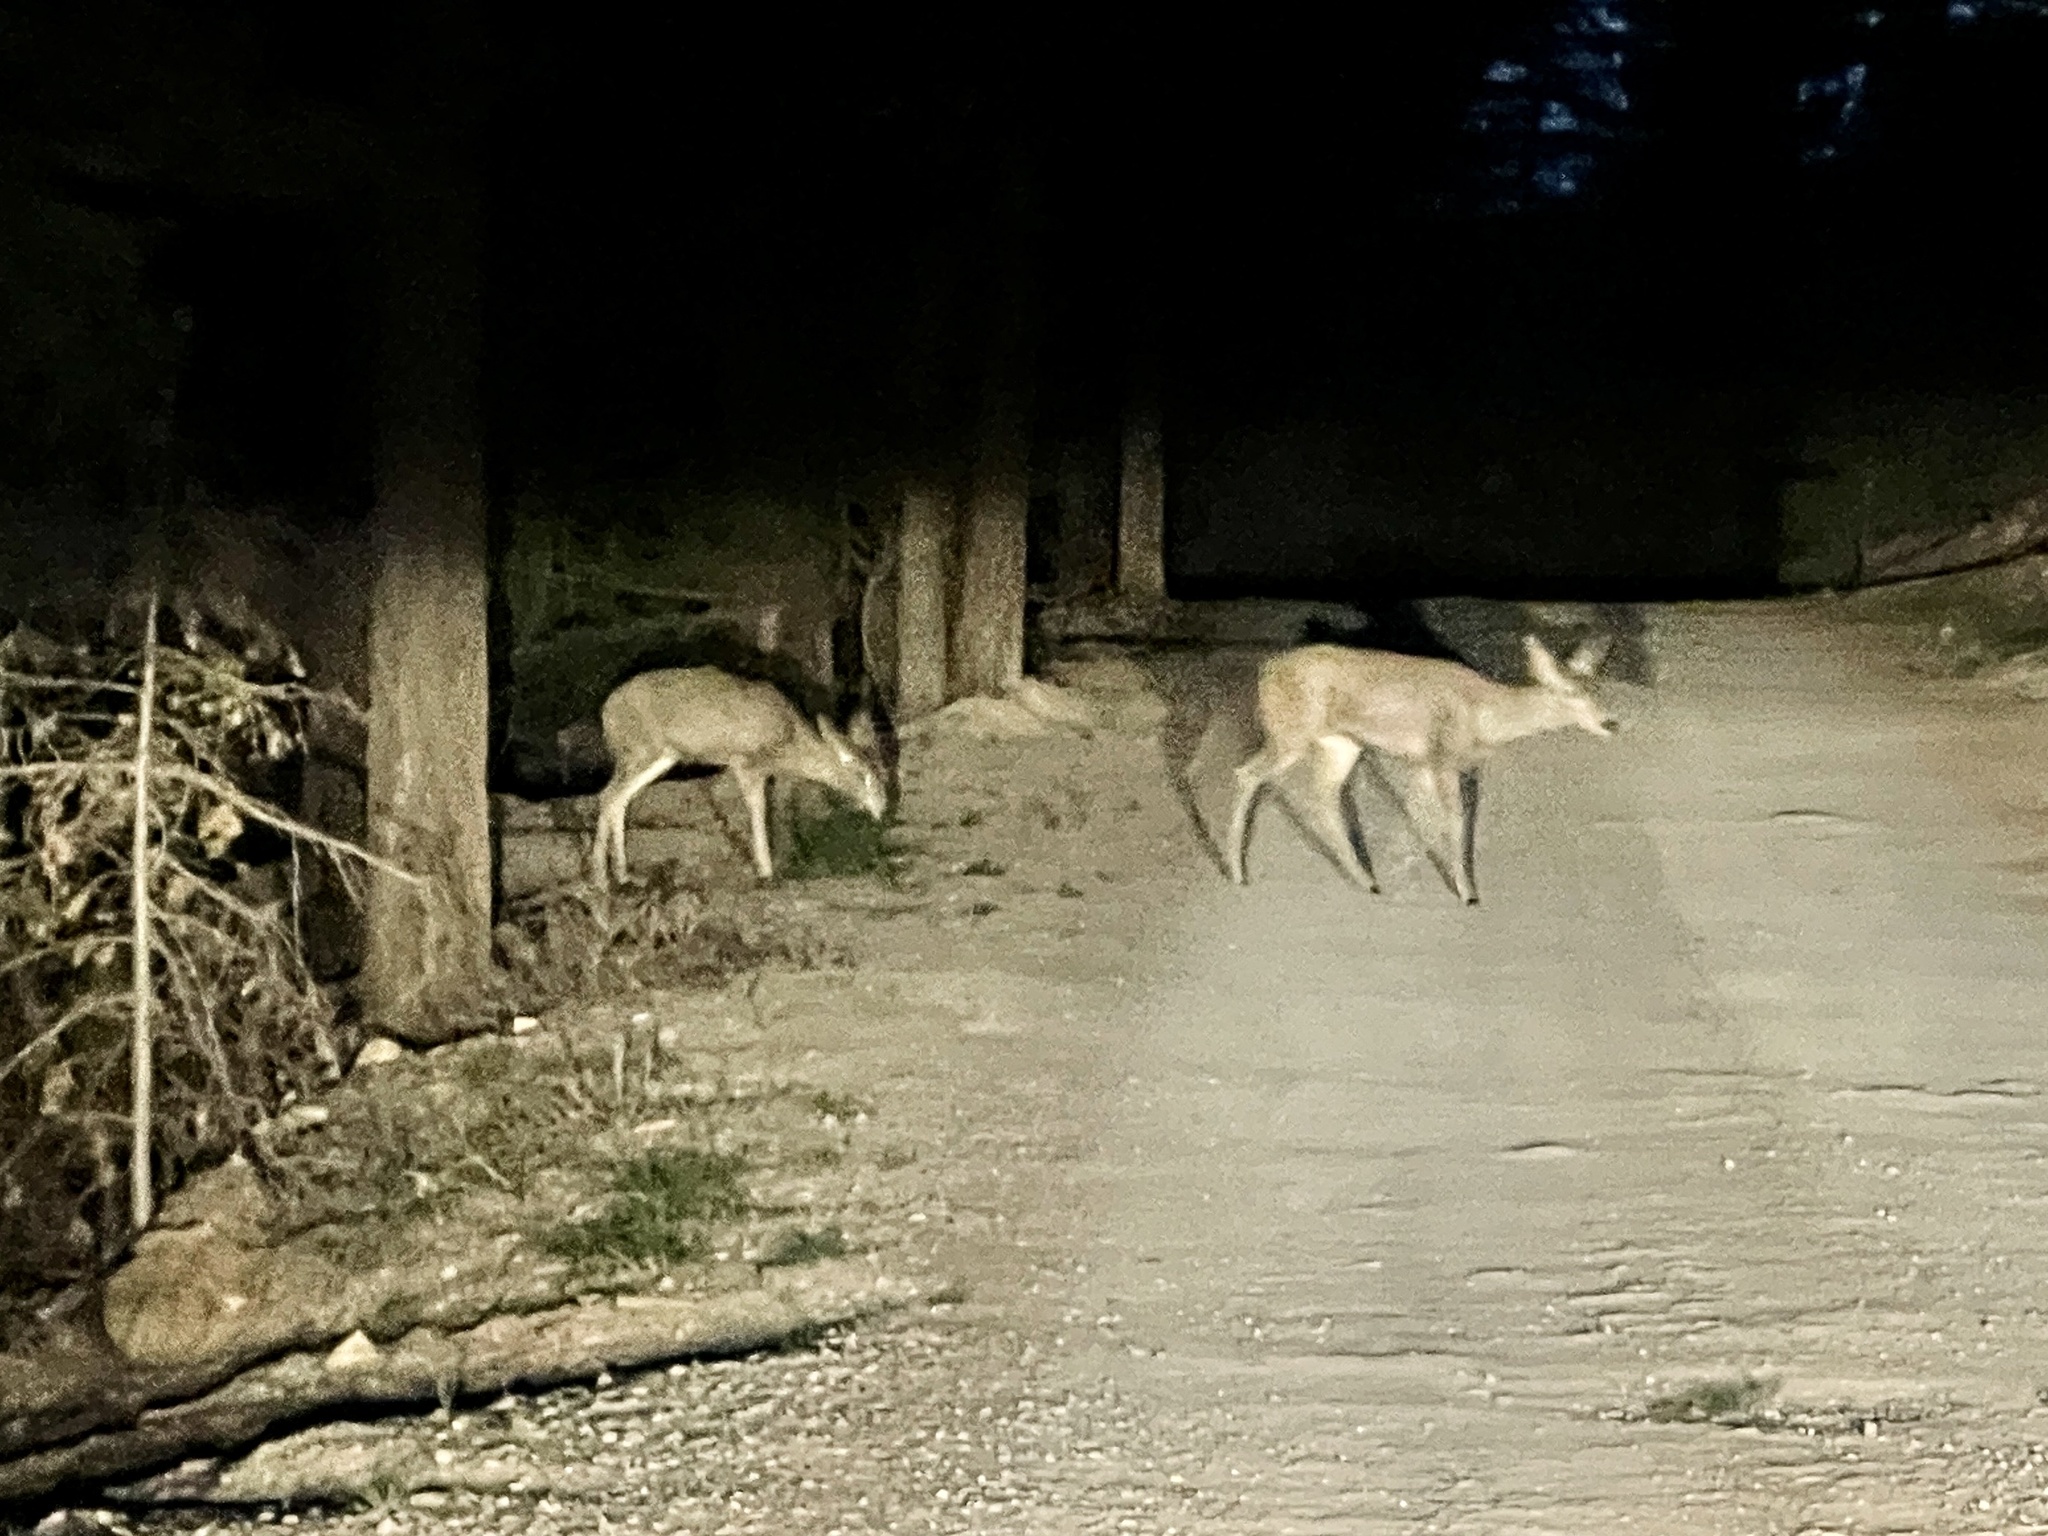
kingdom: Animalia
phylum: Chordata
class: Mammalia
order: Artiodactyla
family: Cervidae
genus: Odocoileus
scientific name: Odocoileus hemionus
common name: Mule deer
